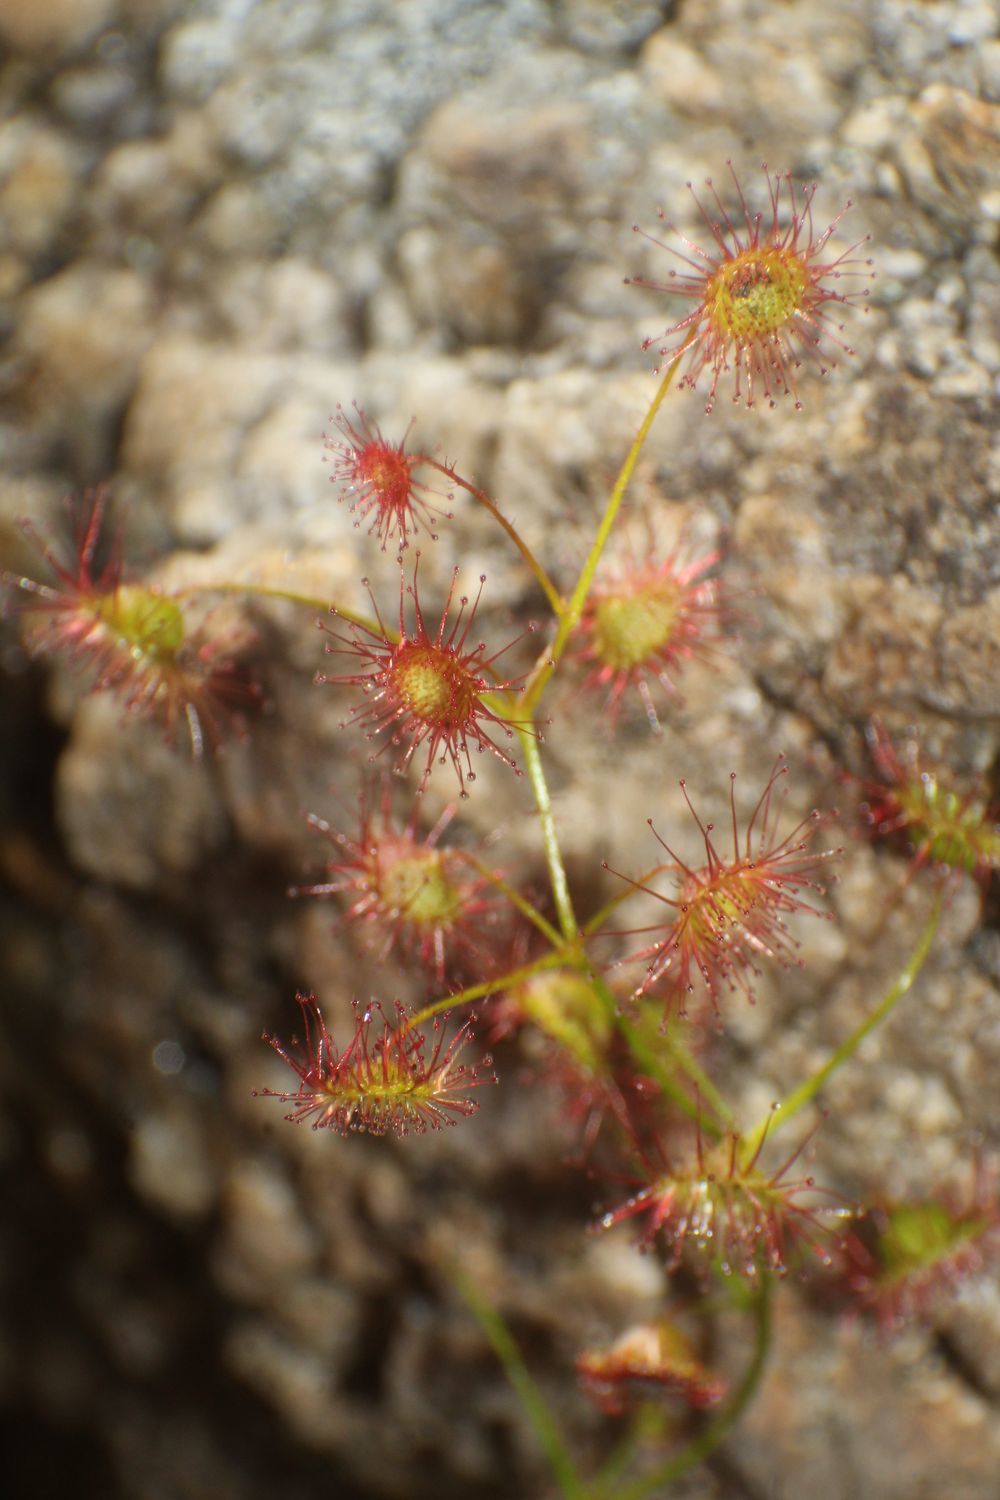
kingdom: Plantae
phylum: Tracheophyta
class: Magnoliopsida
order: Caryophyllales
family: Droseraceae
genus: Drosera
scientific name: Drosera macrantha
